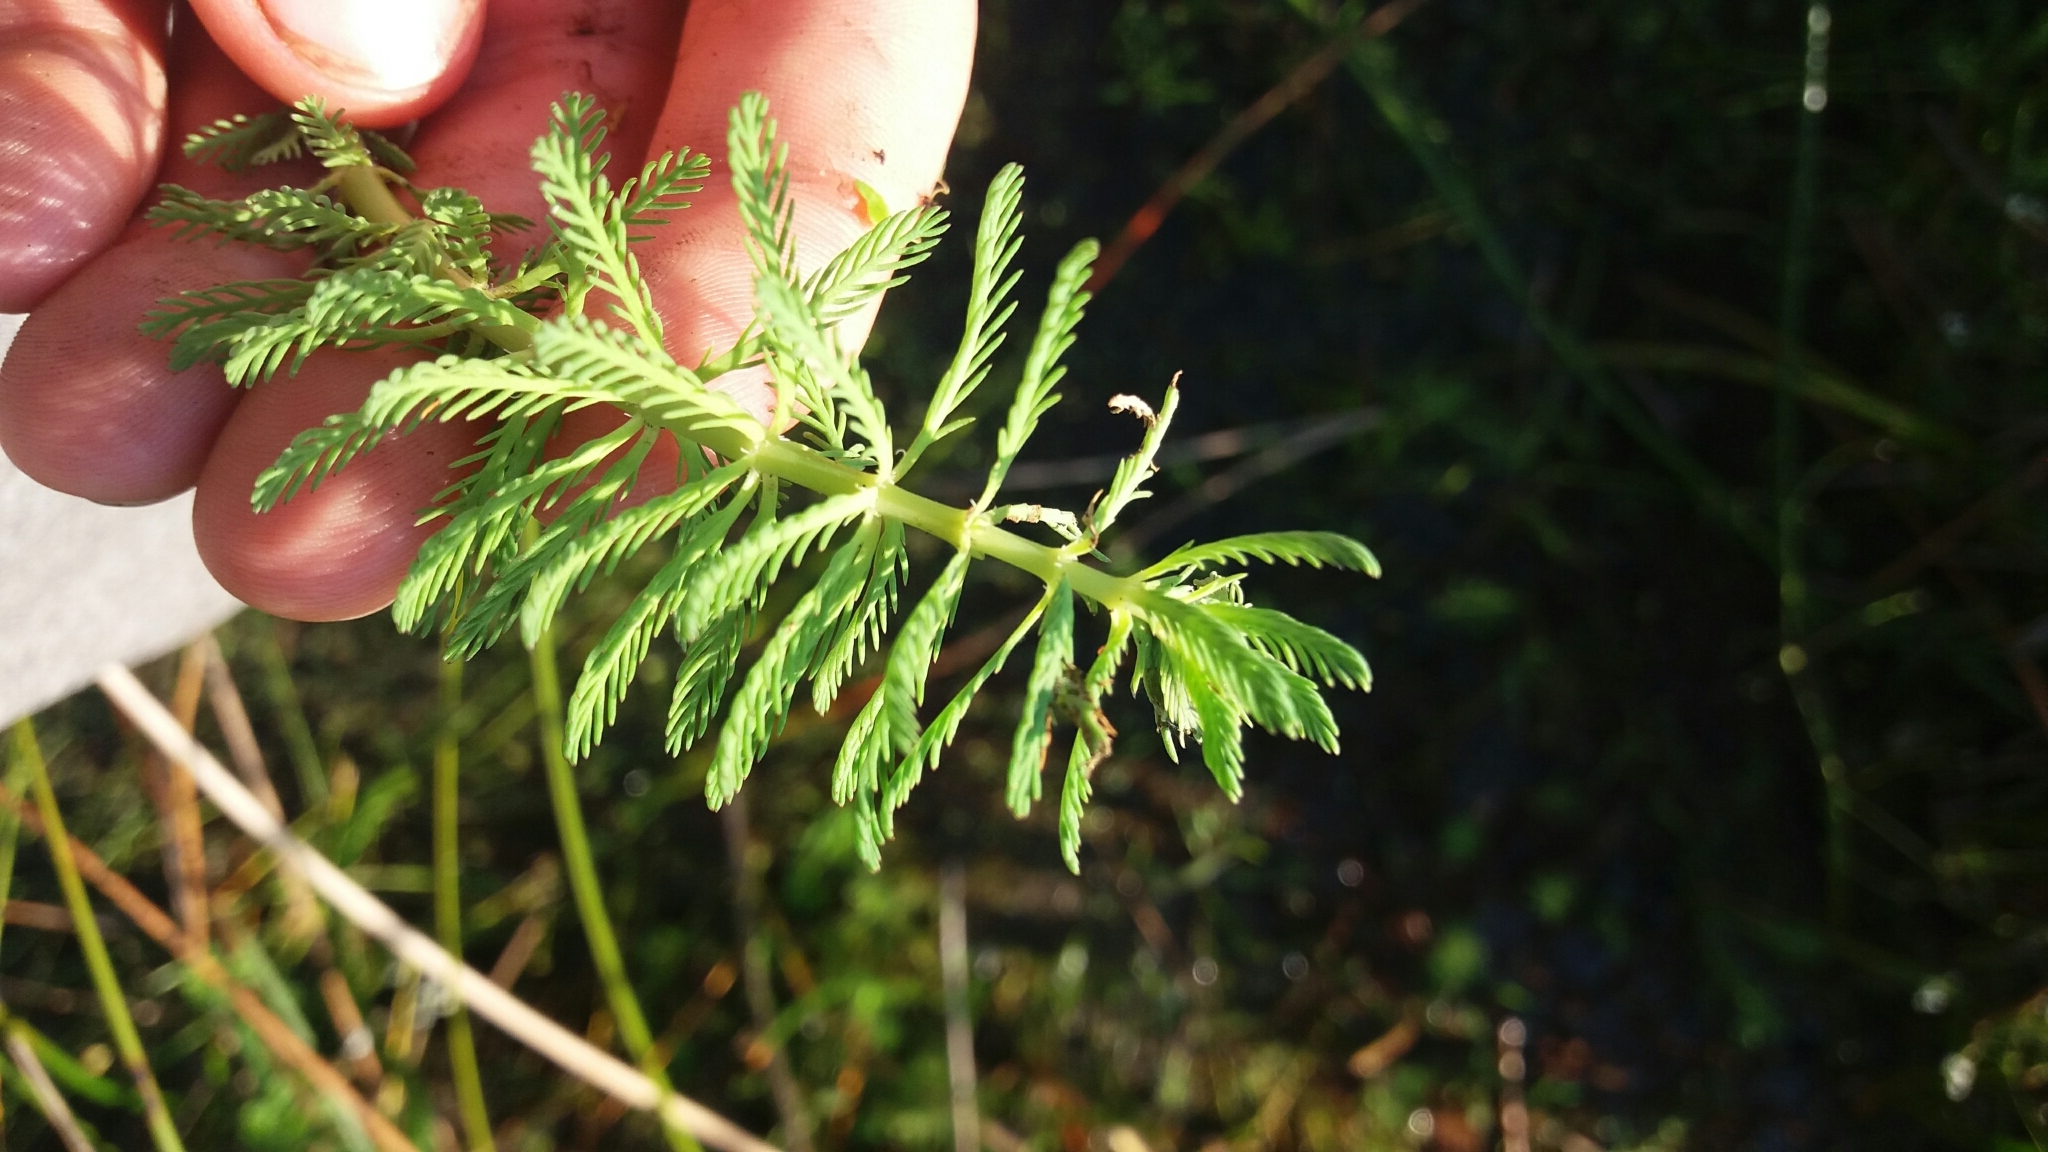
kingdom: Plantae
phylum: Tracheophyta
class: Magnoliopsida
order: Saxifragales
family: Haloragaceae
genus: Myriophyllum
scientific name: Myriophyllum aquaticum
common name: Parrot's feather
